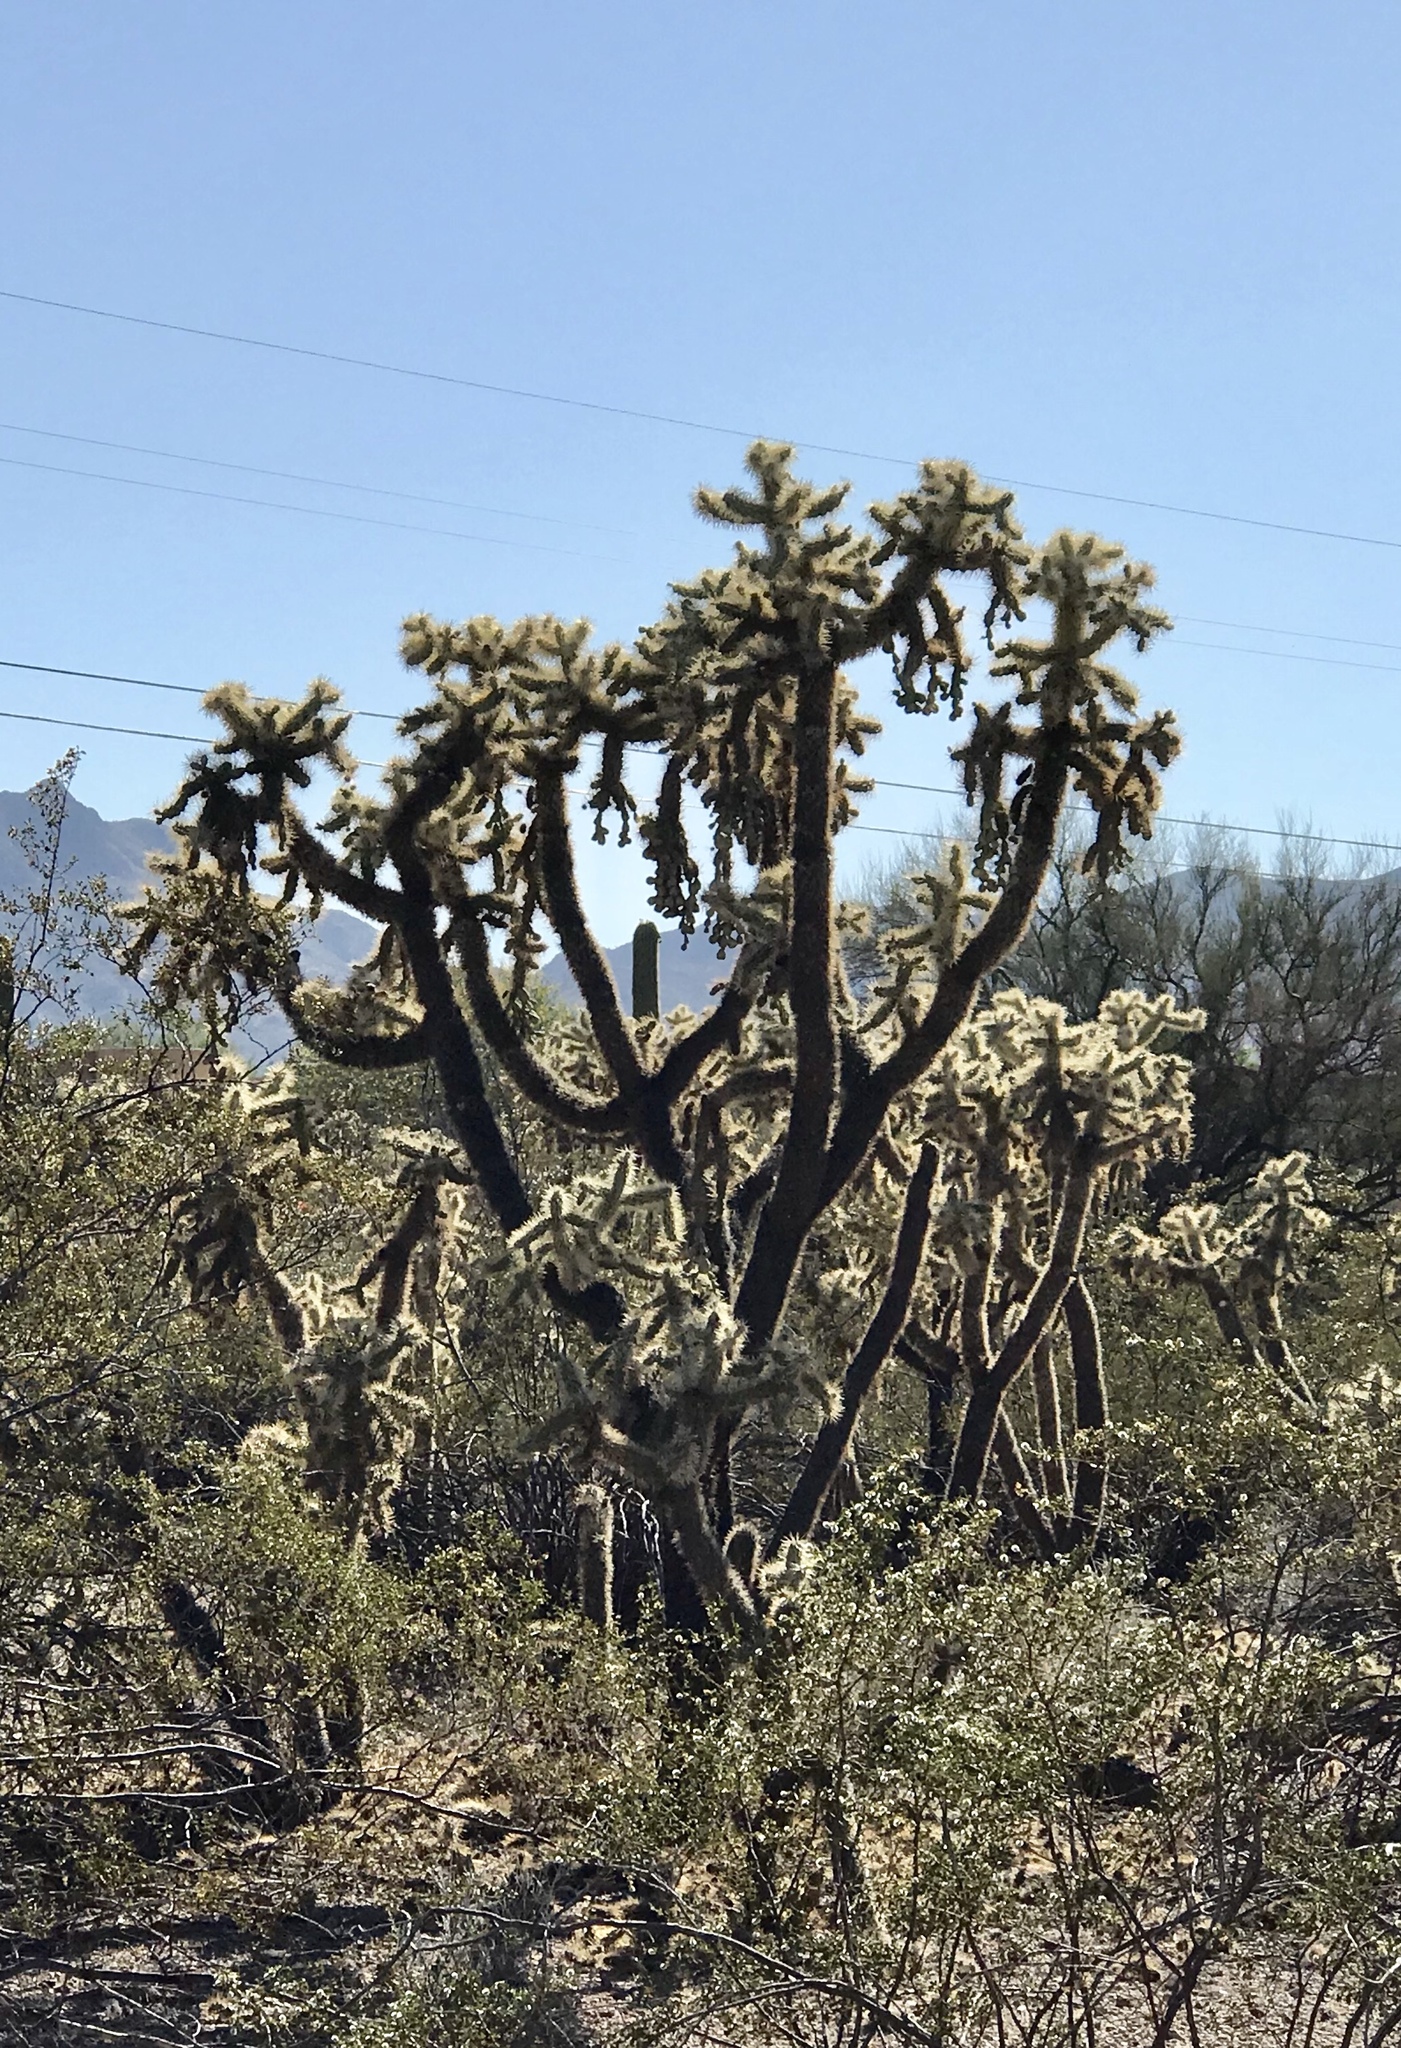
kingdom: Plantae
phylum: Tracheophyta
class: Magnoliopsida
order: Caryophyllales
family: Cactaceae
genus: Cylindropuntia
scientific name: Cylindropuntia fulgida
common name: Jumping cholla
